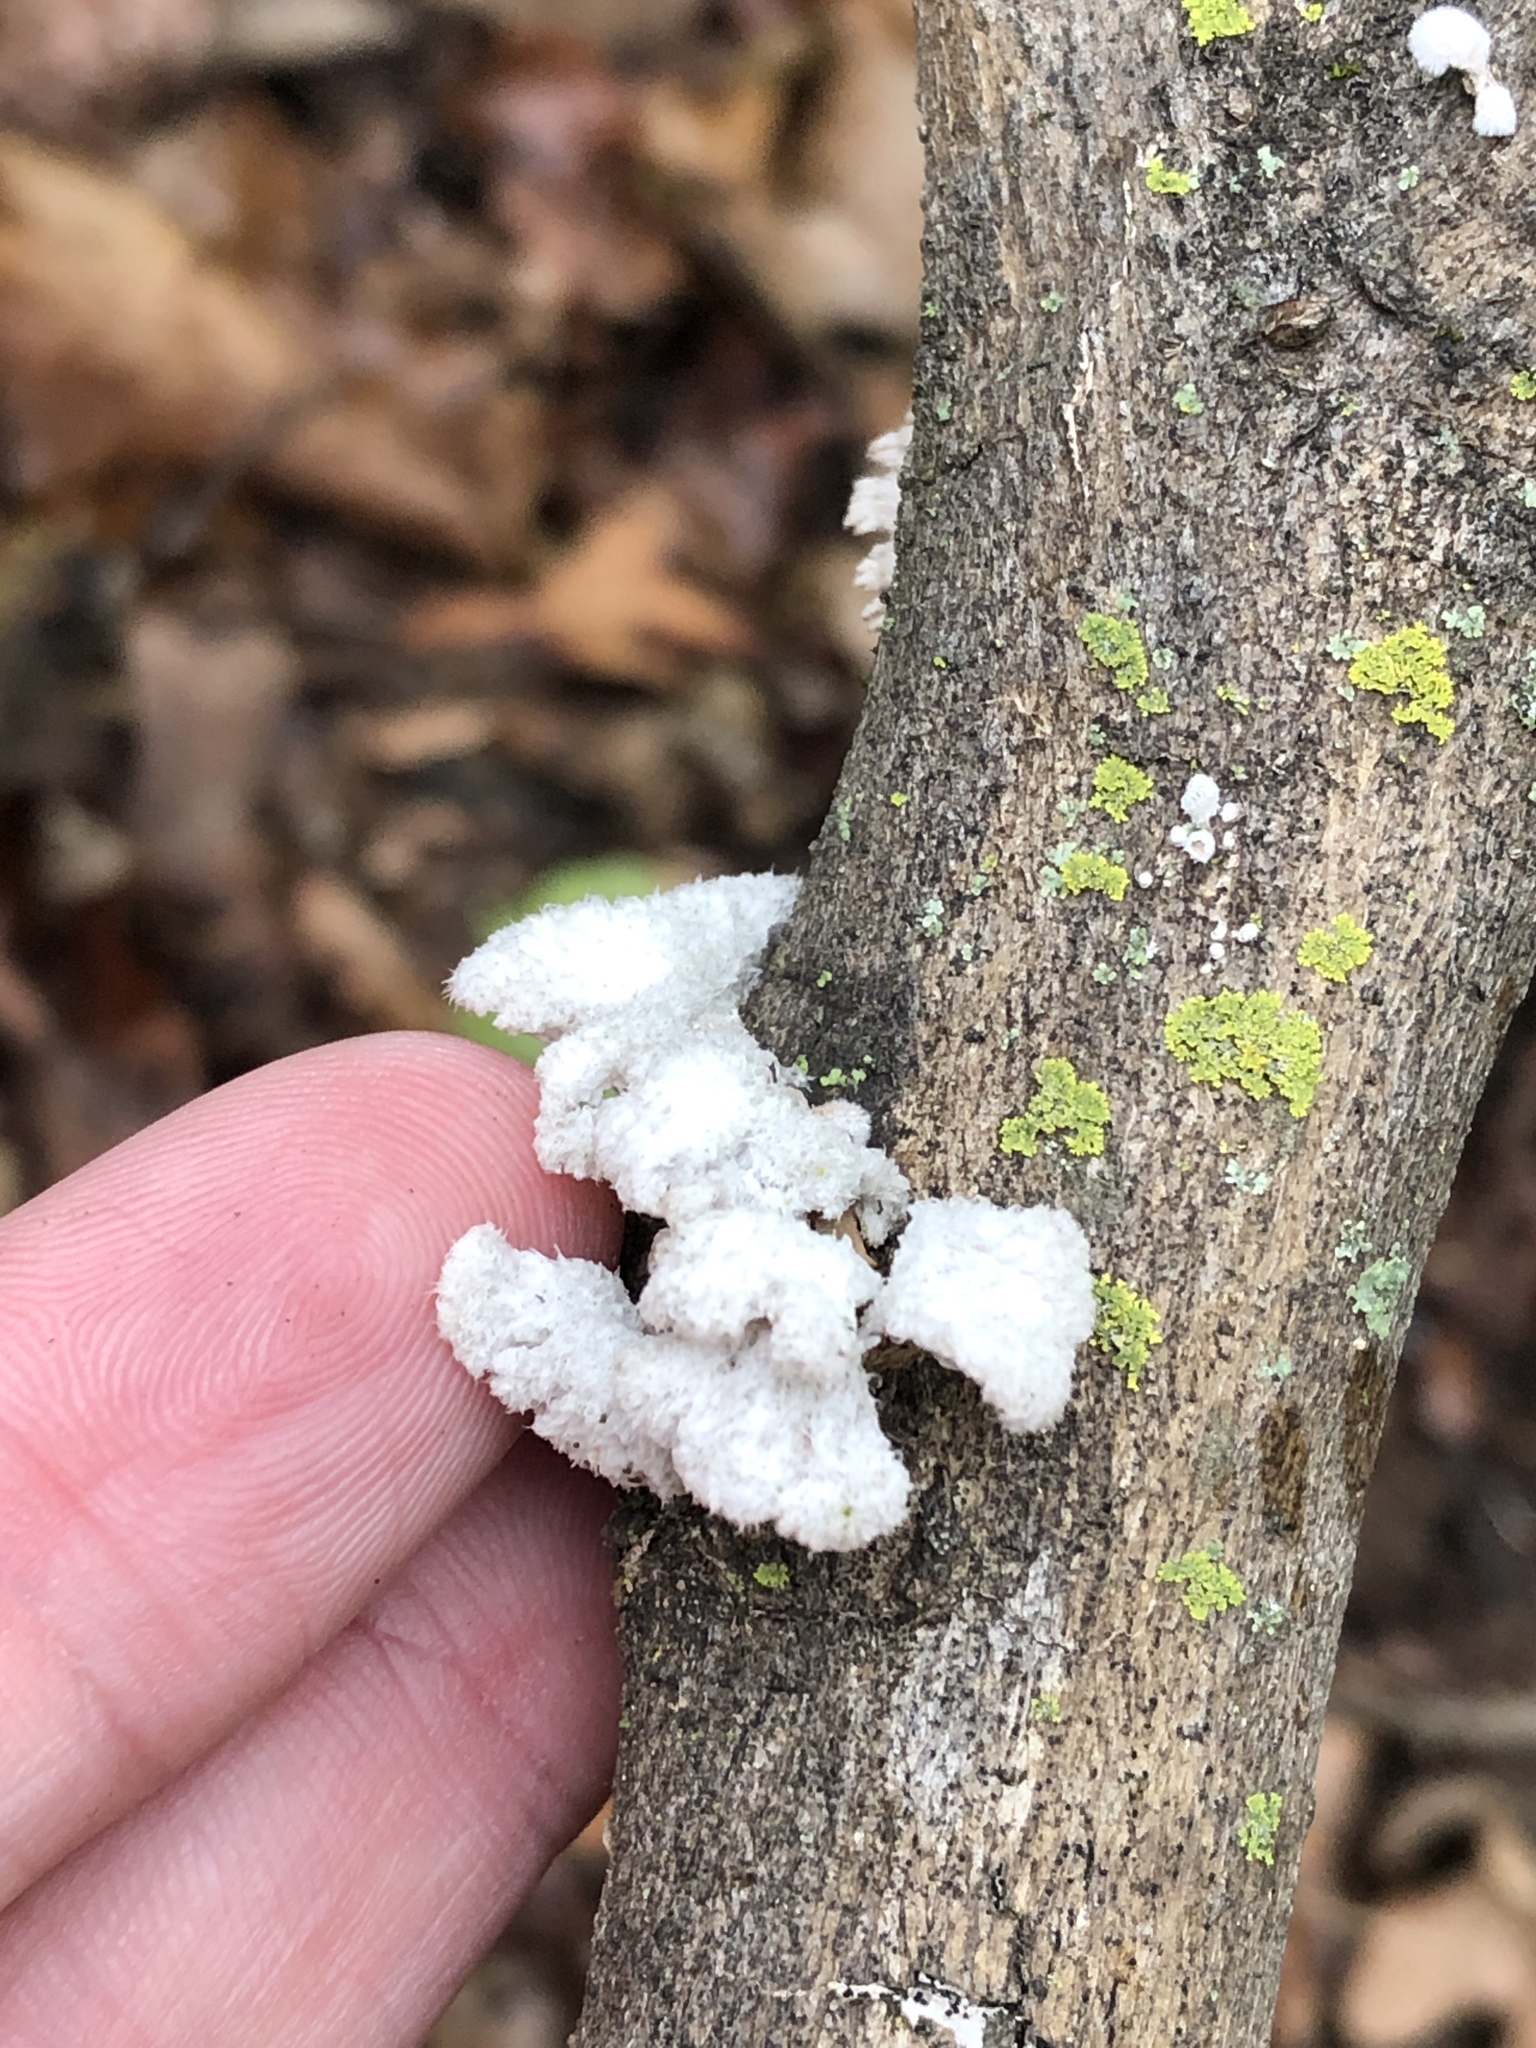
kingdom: Fungi
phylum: Basidiomycota
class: Agaricomycetes
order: Agaricales
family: Schizophyllaceae
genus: Schizophyllum
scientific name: Schizophyllum commune
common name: Common porecrust
